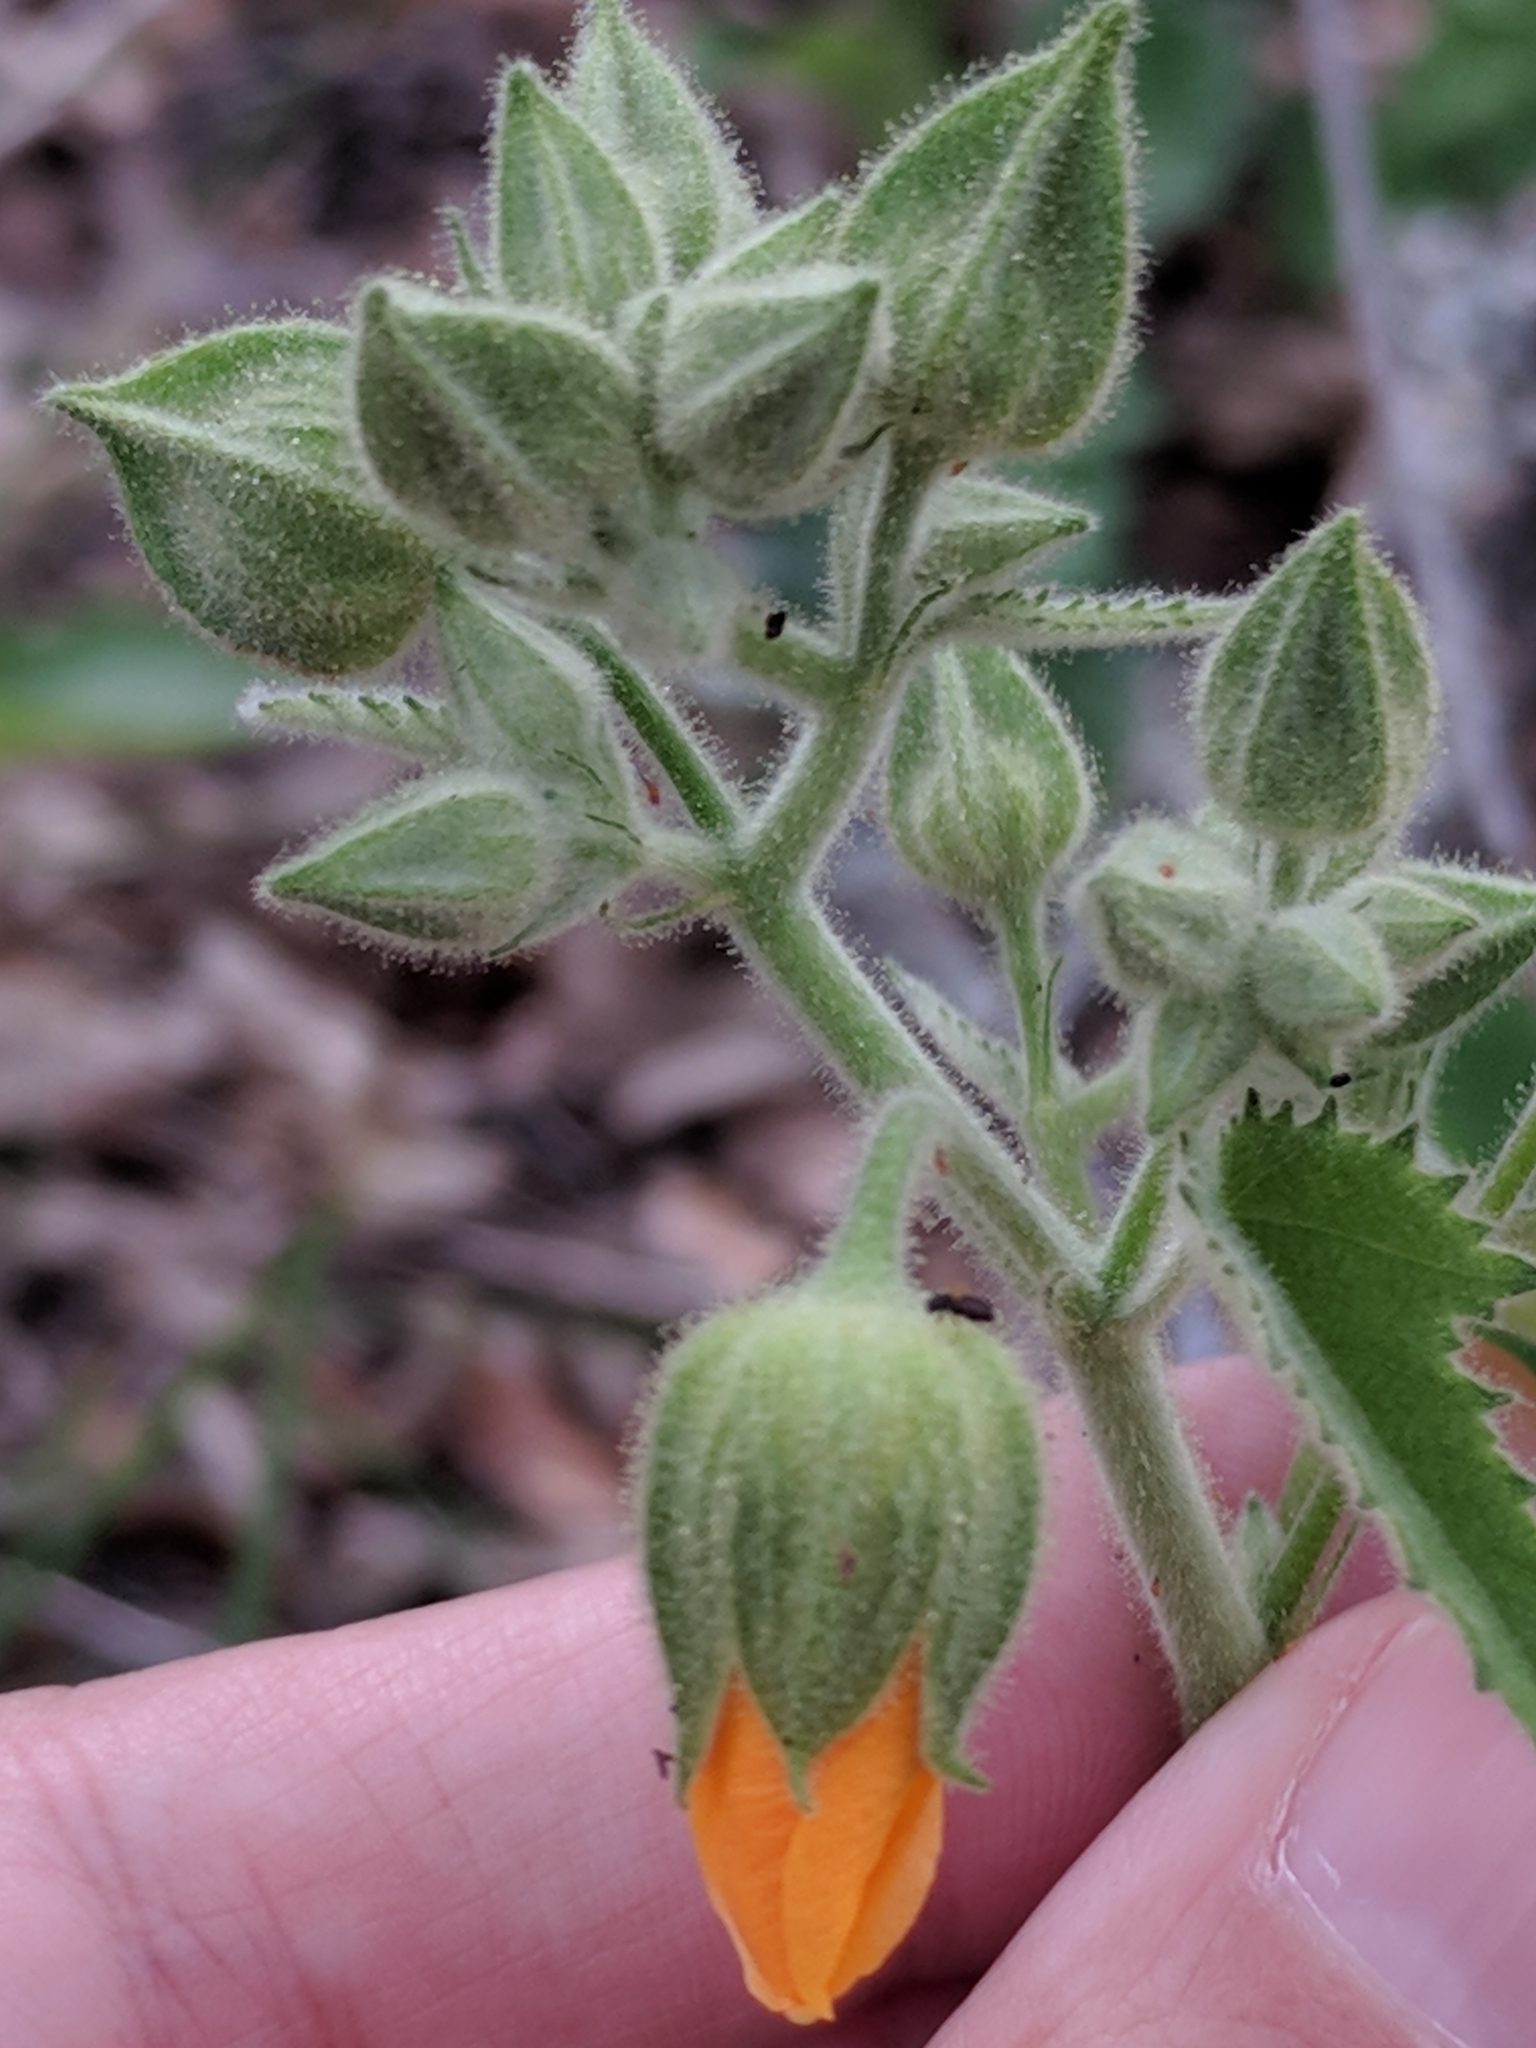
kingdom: Plantae
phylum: Tracheophyta
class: Magnoliopsida
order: Malvales
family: Malvaceae
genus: Allowissadula
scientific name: Allowissadula holosericea
